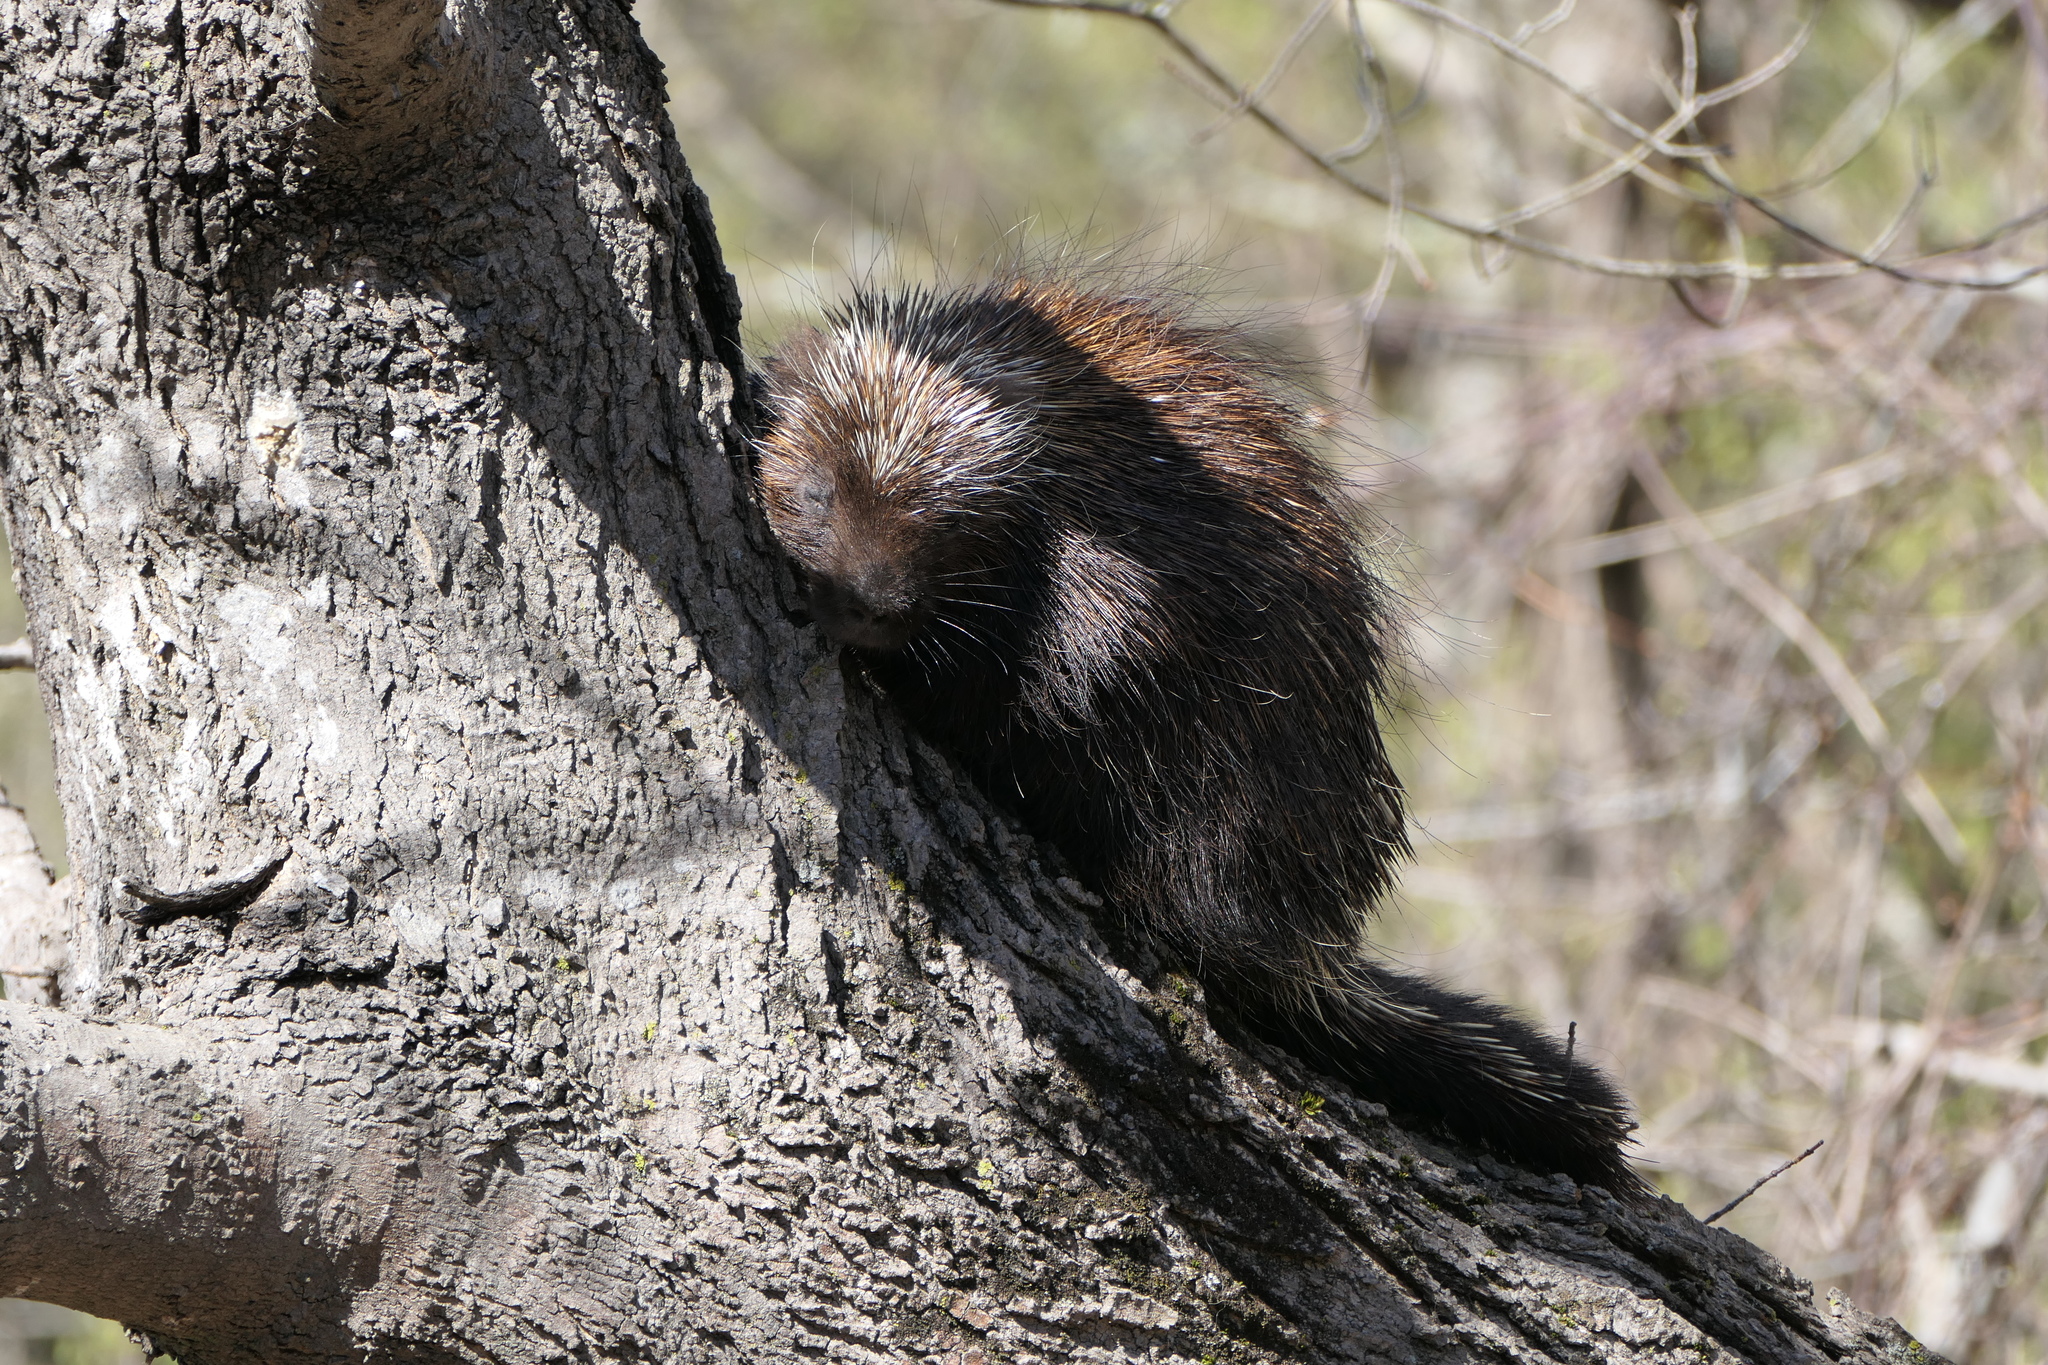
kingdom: Animalia
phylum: Chordata
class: Mammalia
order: Rodentia
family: Erethizontidae
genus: Erethizon
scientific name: Erethizon dorsatus
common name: North american porcupine
